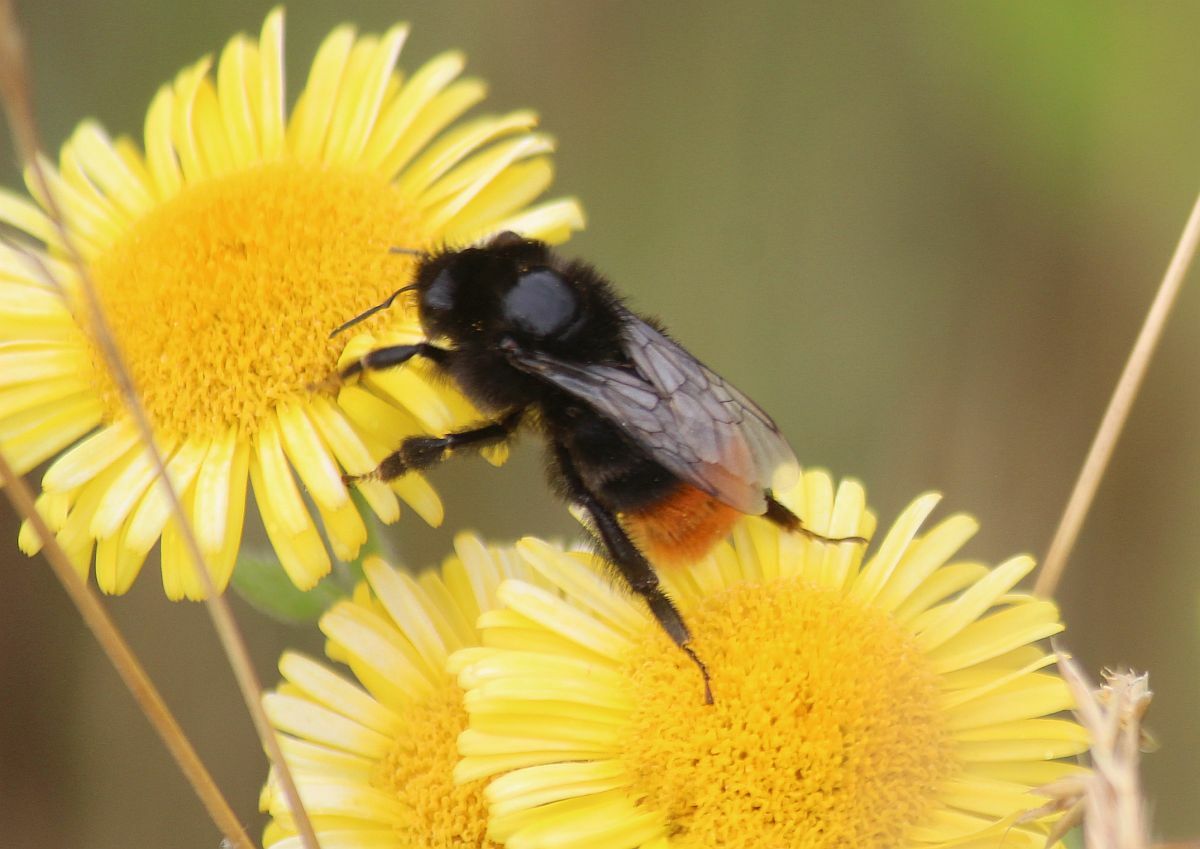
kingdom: Animalia
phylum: Arthropoda
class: Insecta
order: Hymenoptera
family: Apidae
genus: Bombus
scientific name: Bombus lapidarius
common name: Large red-tailed humble-bee
